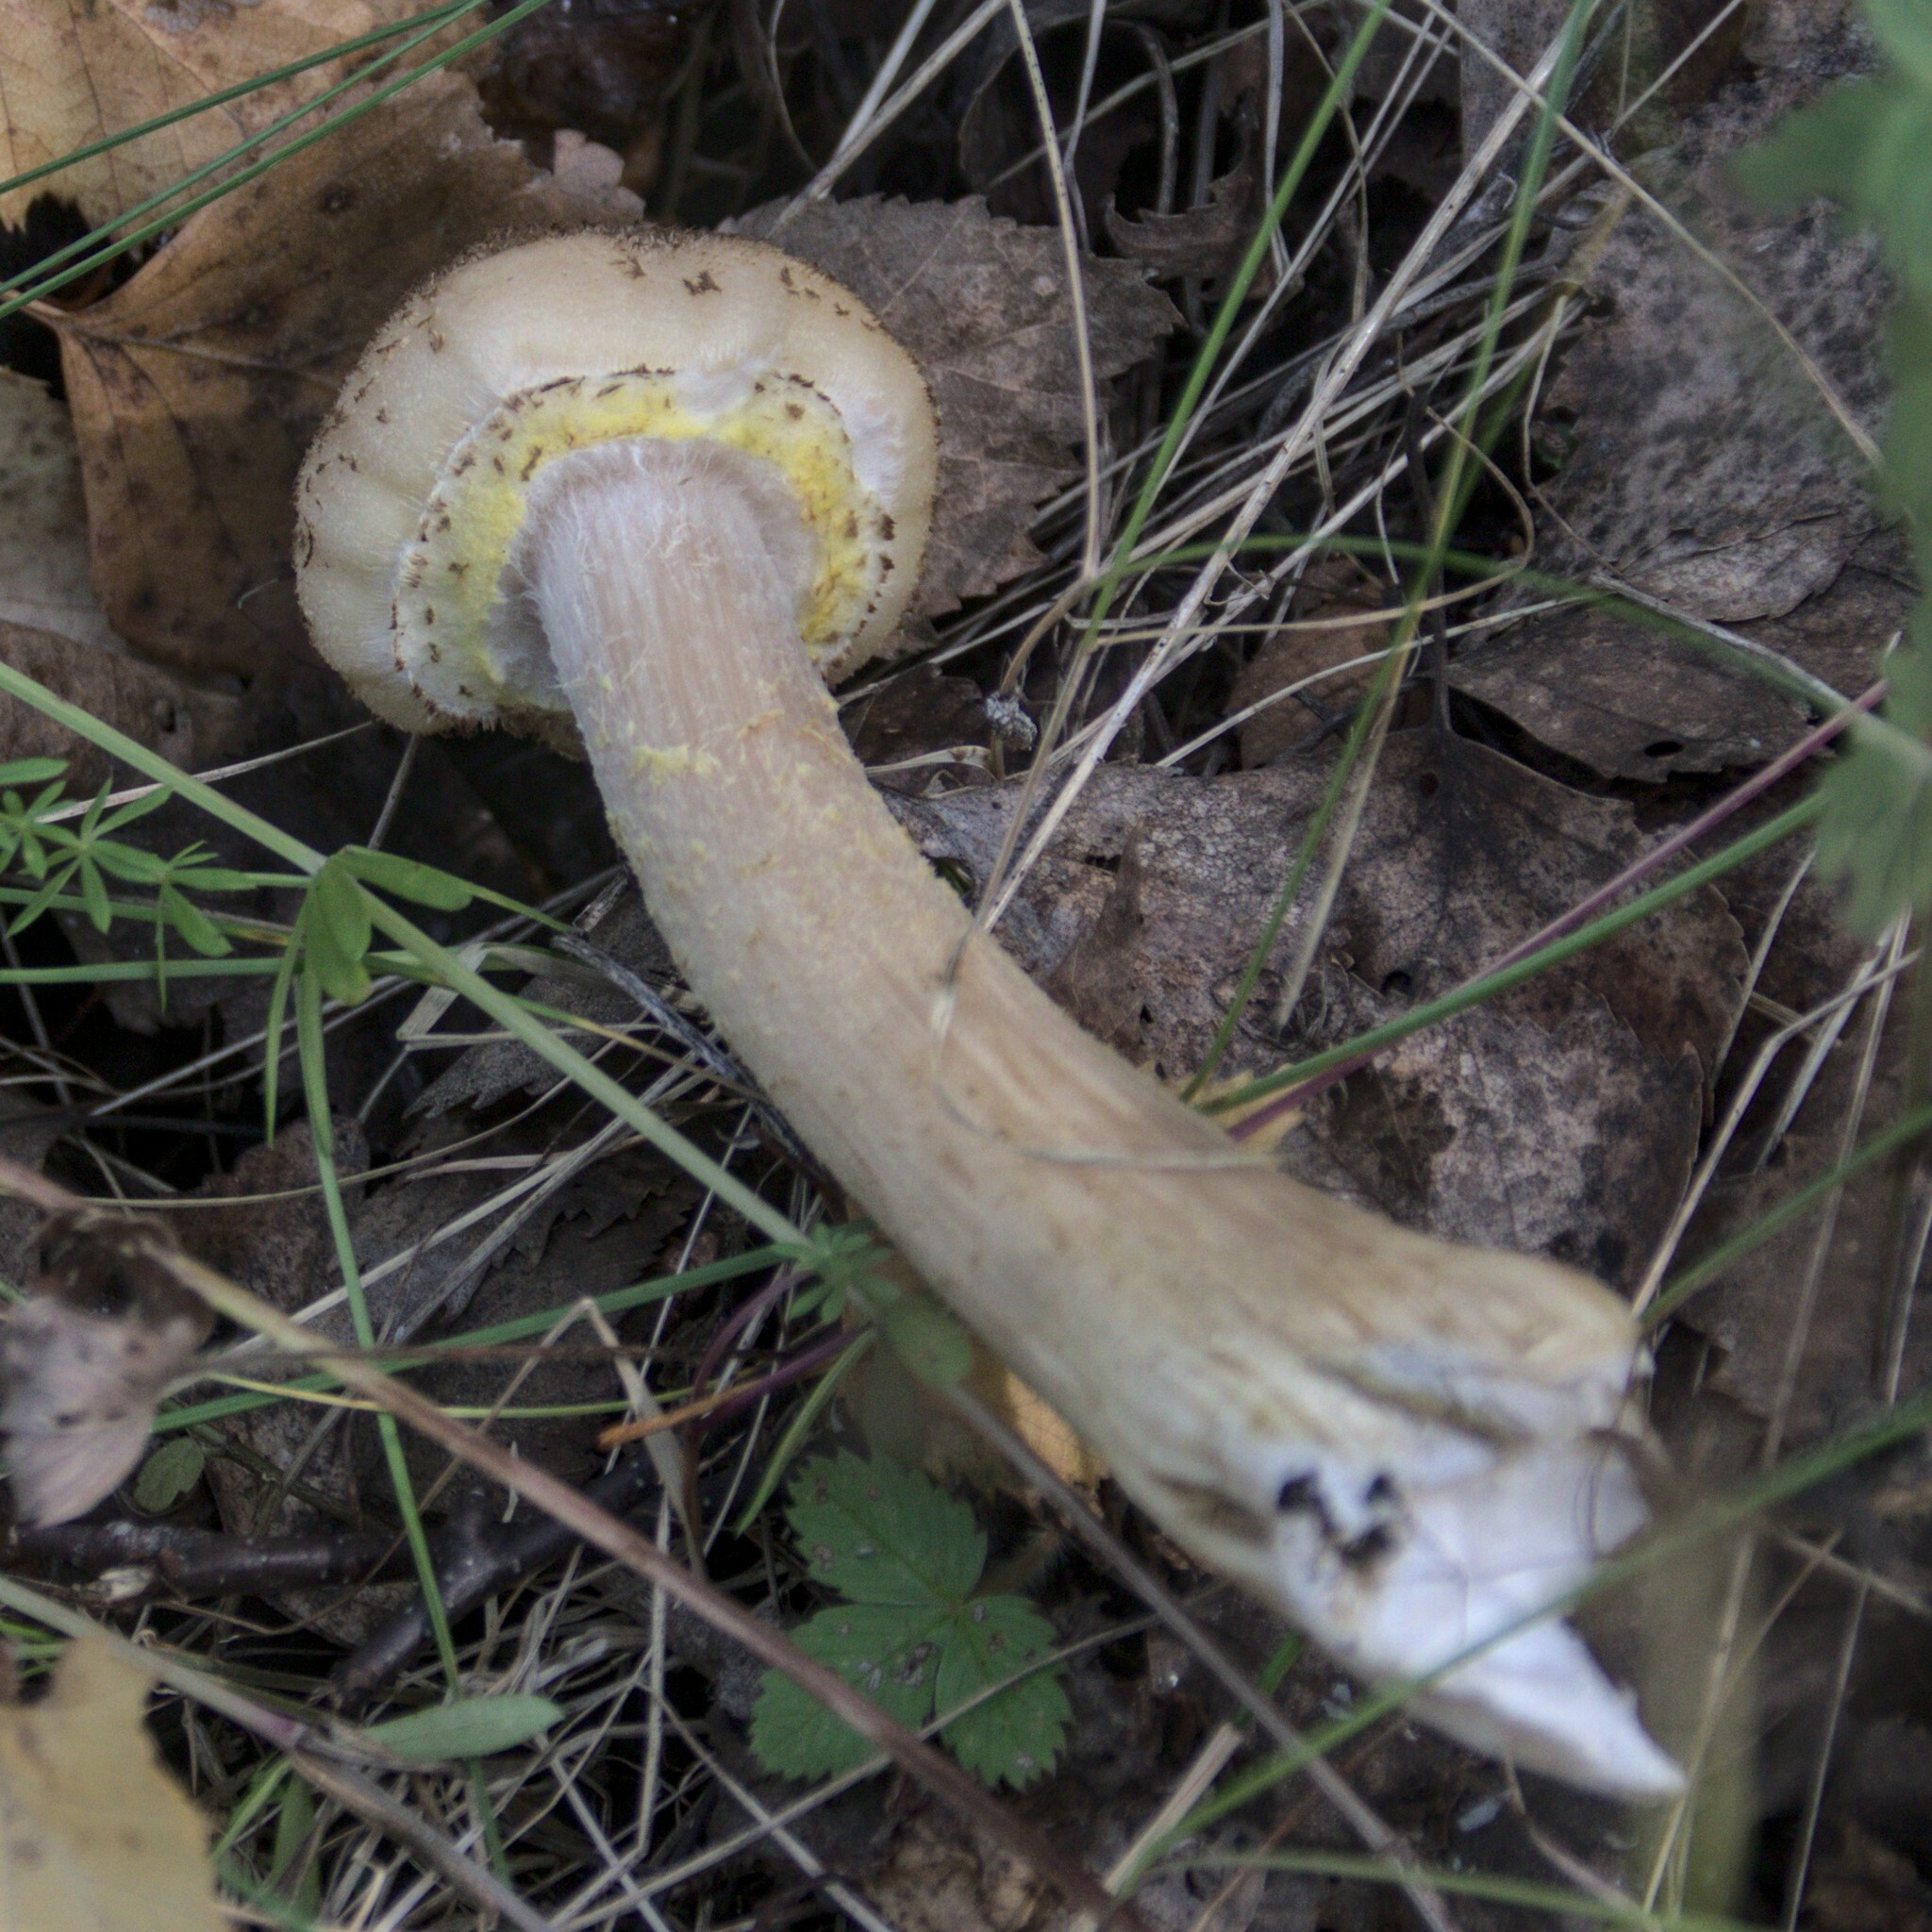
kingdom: Fungi
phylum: Basidiomycota
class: Agaricomycetes
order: Agaricales
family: Physalacriaceae
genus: Armillaria
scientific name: Armillaria borealis
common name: Northern honey fungus
